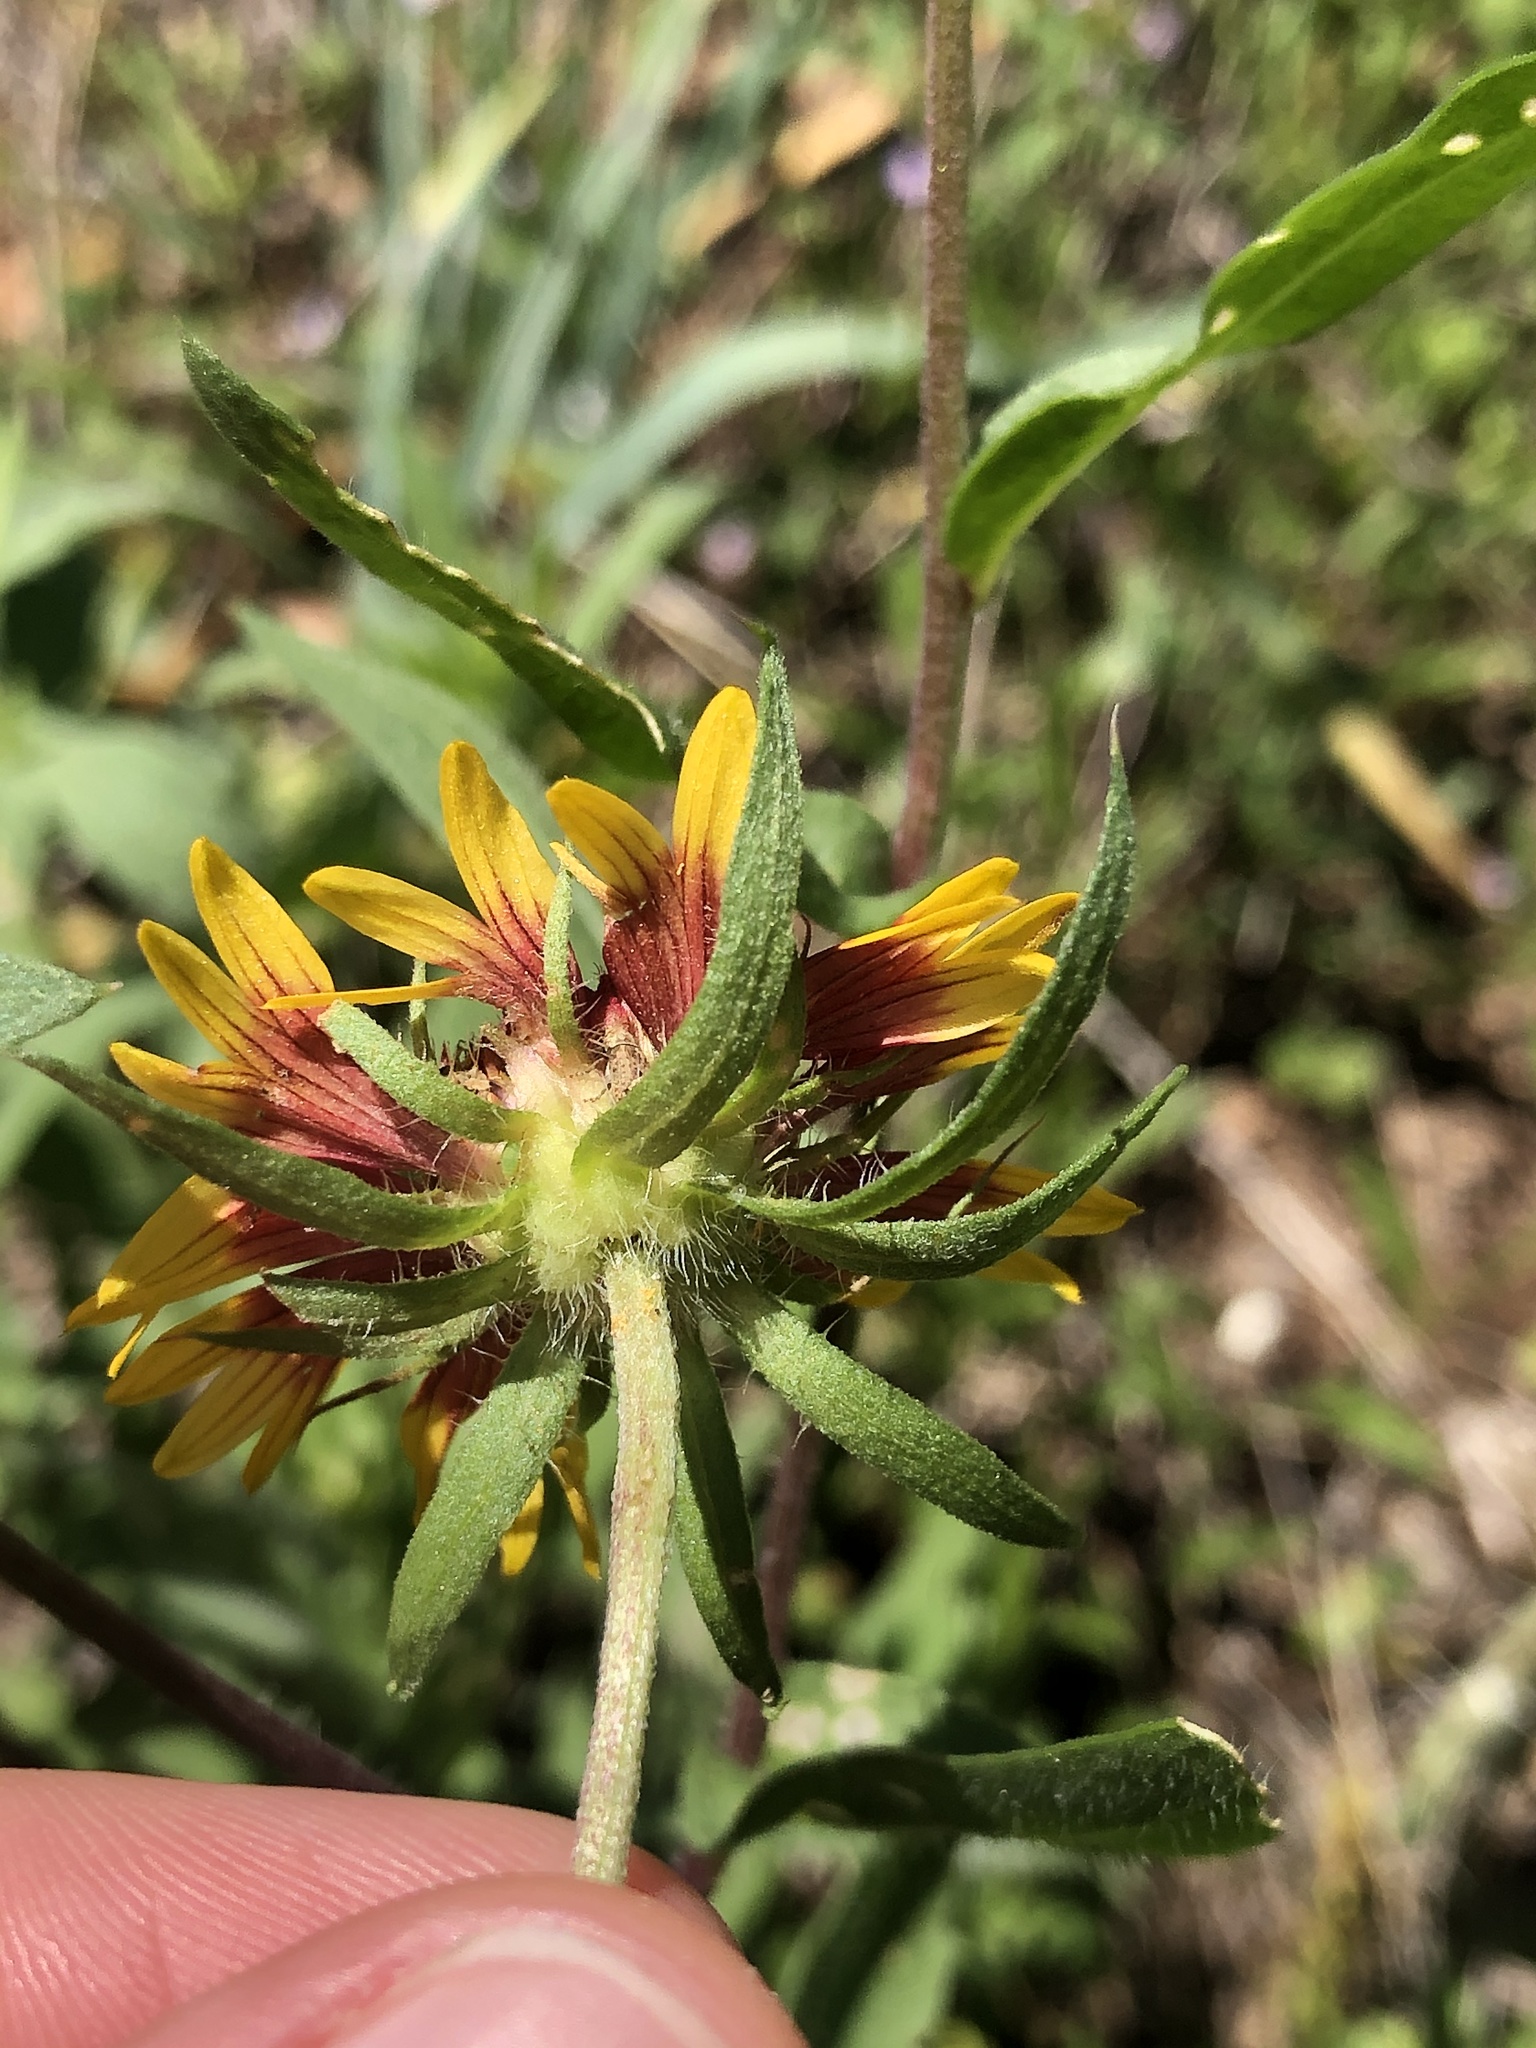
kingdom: Plantae
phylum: Tracheophyta
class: Magnoliopsida
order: Asterales
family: Asteraceae
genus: Gaillardia
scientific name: Gaillardia pulchella
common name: Firewheel
